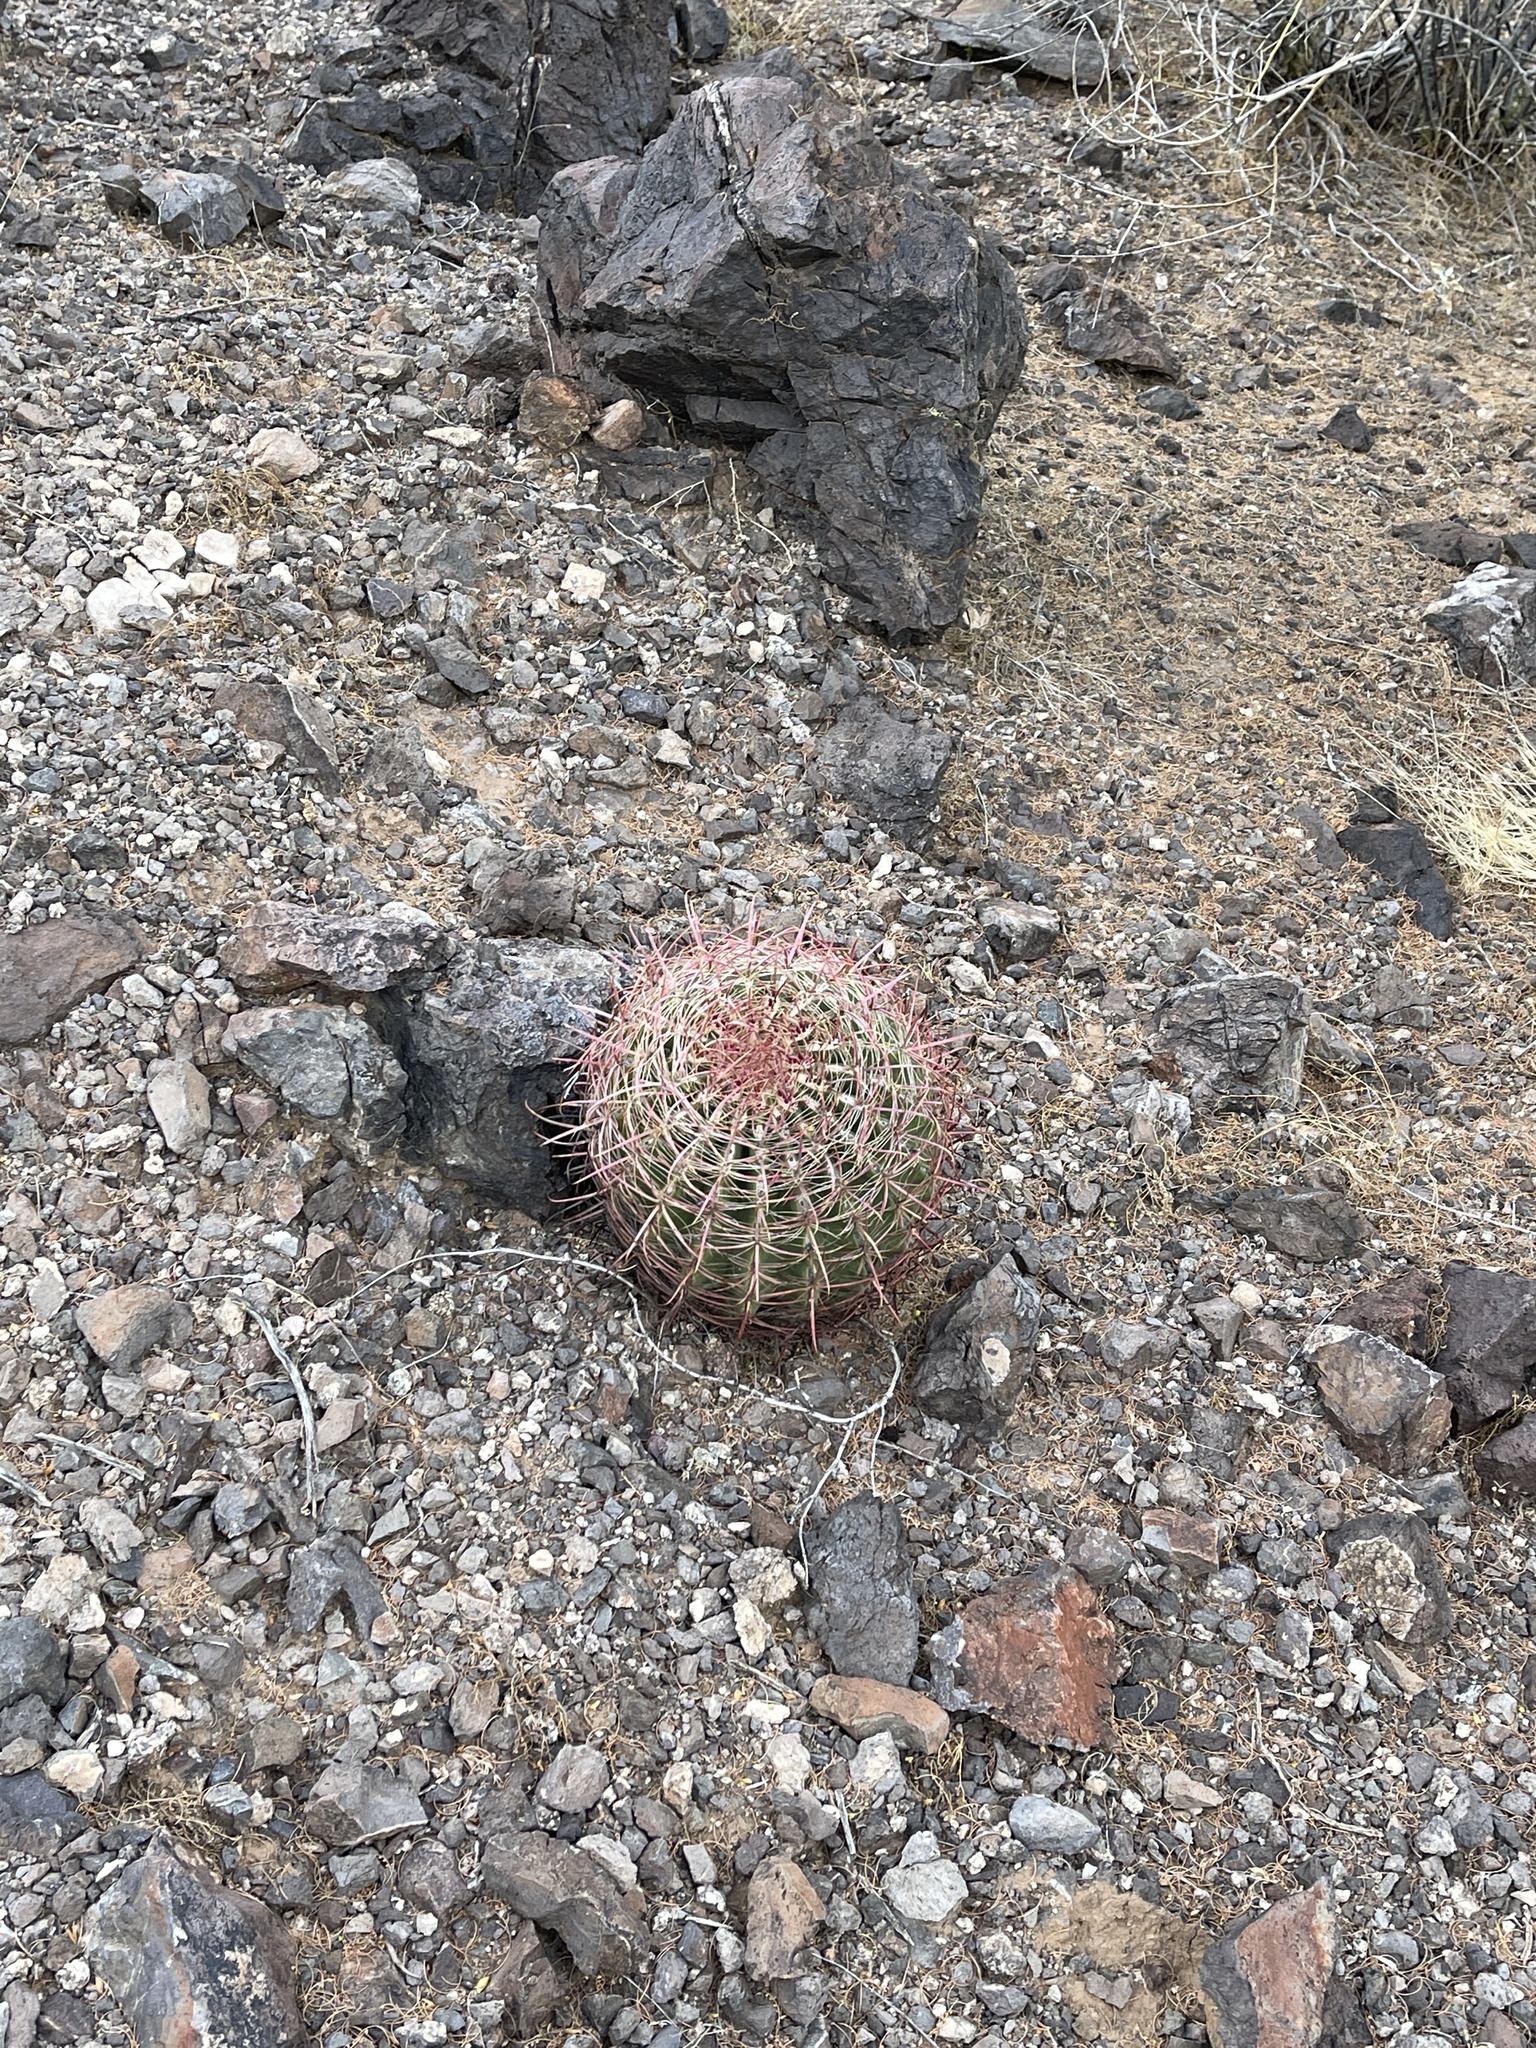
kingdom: Plantae
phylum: Tracheophyta
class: Magnoliopsida
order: Caryophyllales
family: Cactaceae
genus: Ferocactus
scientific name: Ferocactus cylindraceus
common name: California barrel cactus
